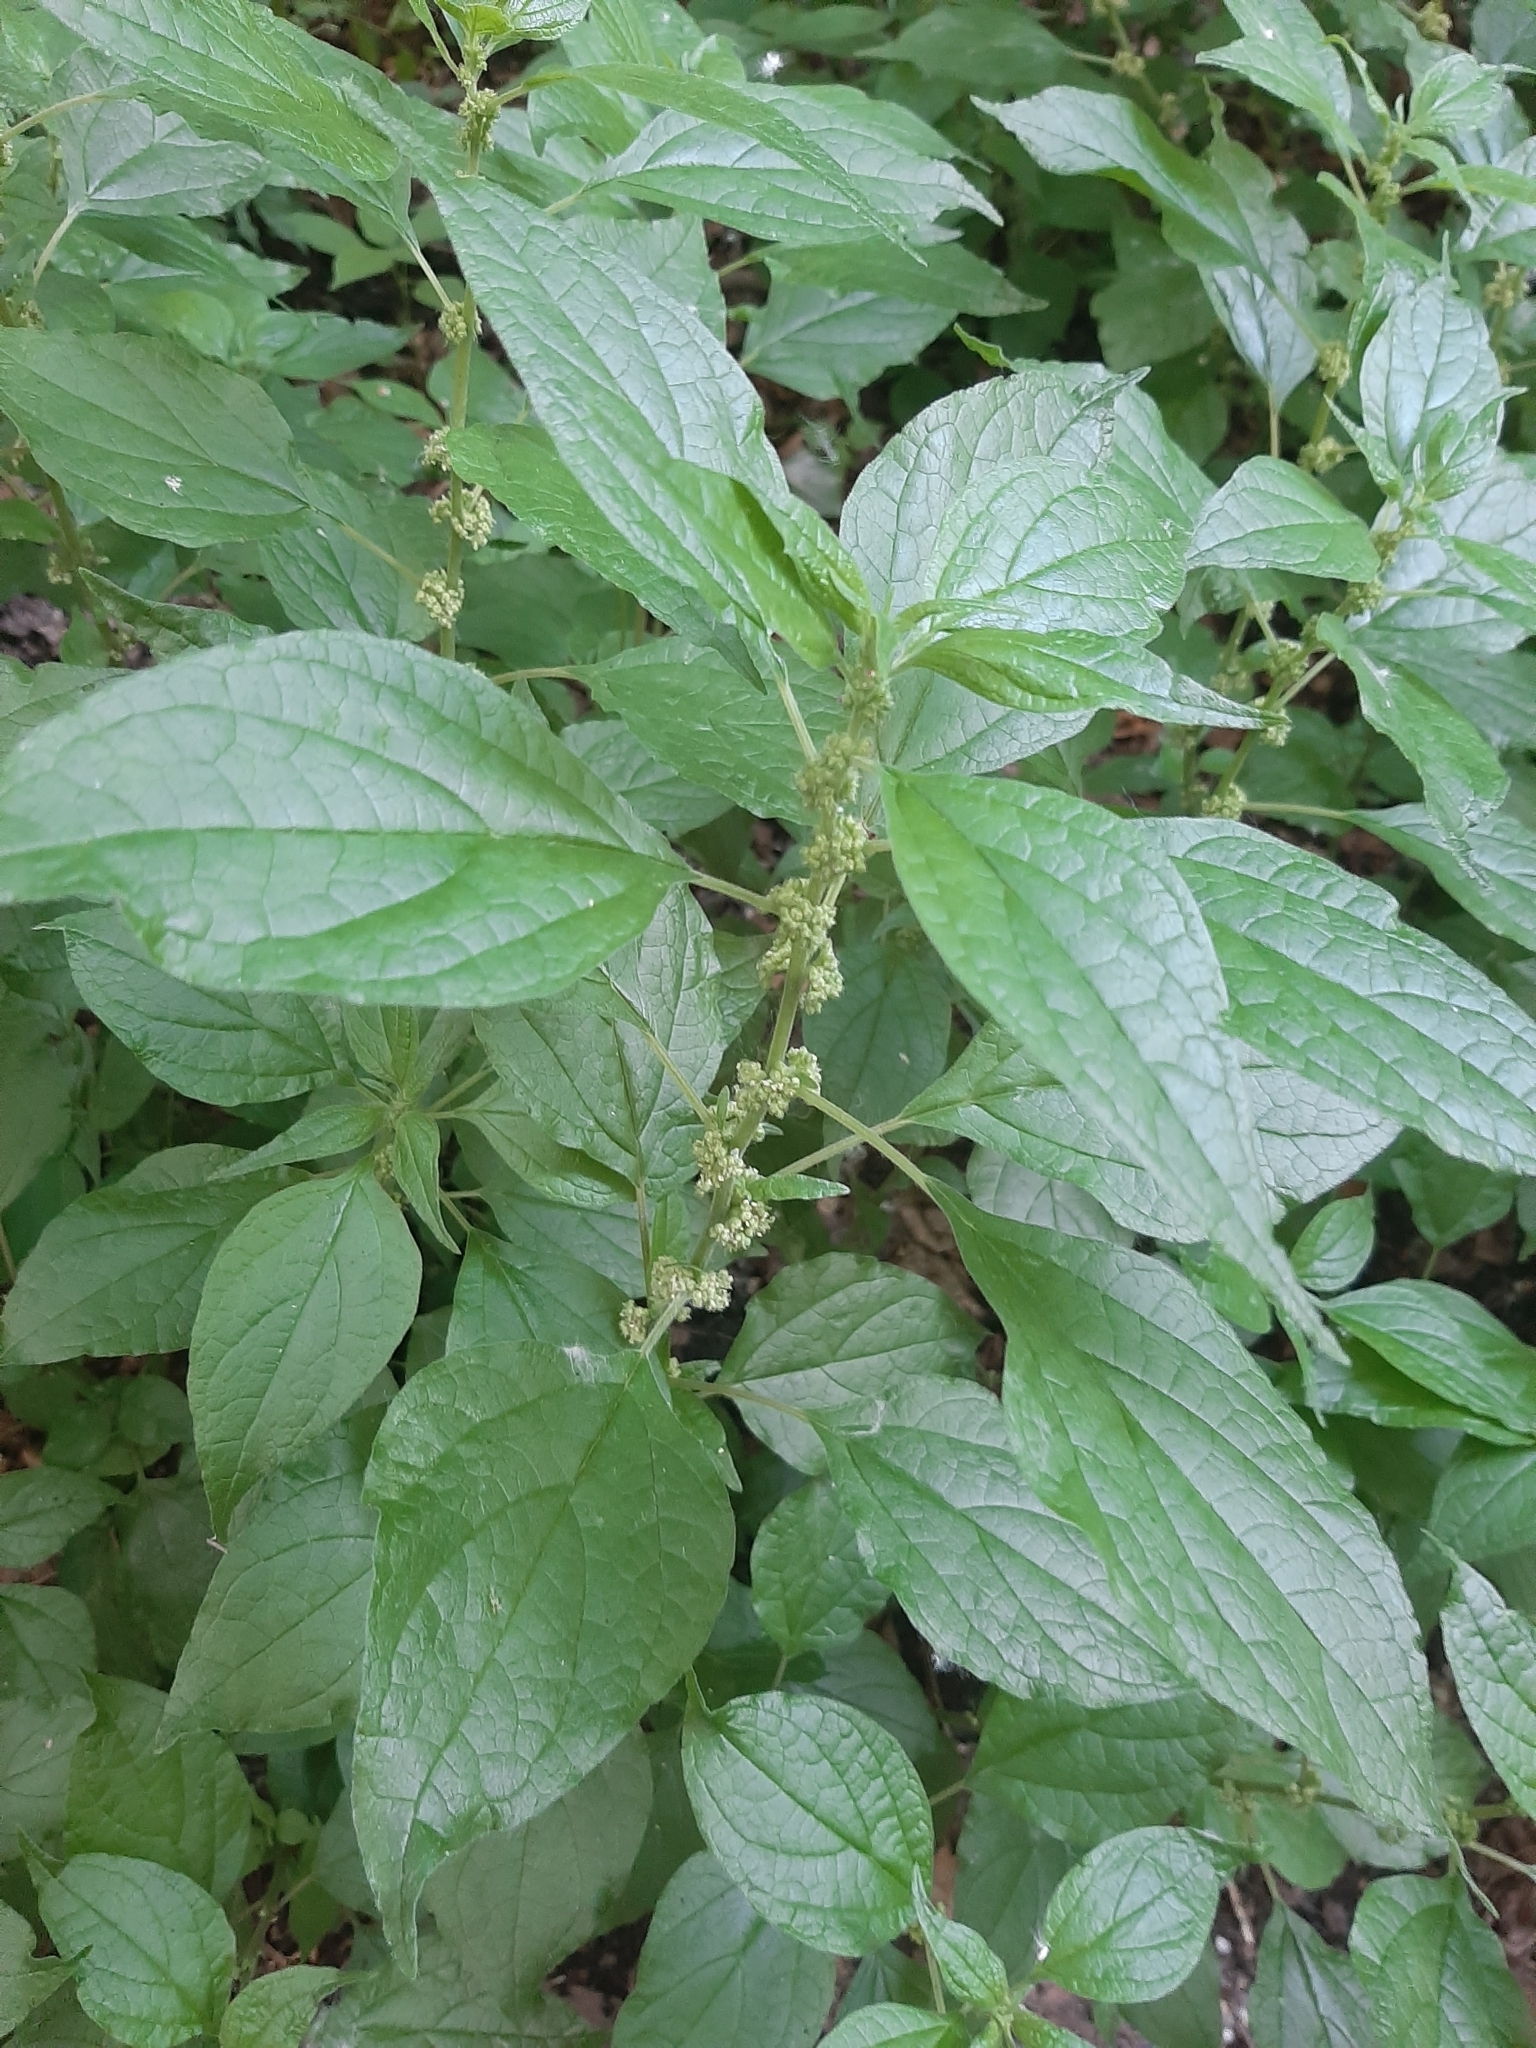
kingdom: Plantae
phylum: Tracheophyta
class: Magnoliopsida
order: Rosales
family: Urticaceae
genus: Parietaria
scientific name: Parietaria officinalis
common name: Eastern pellitory-of-the-wall
